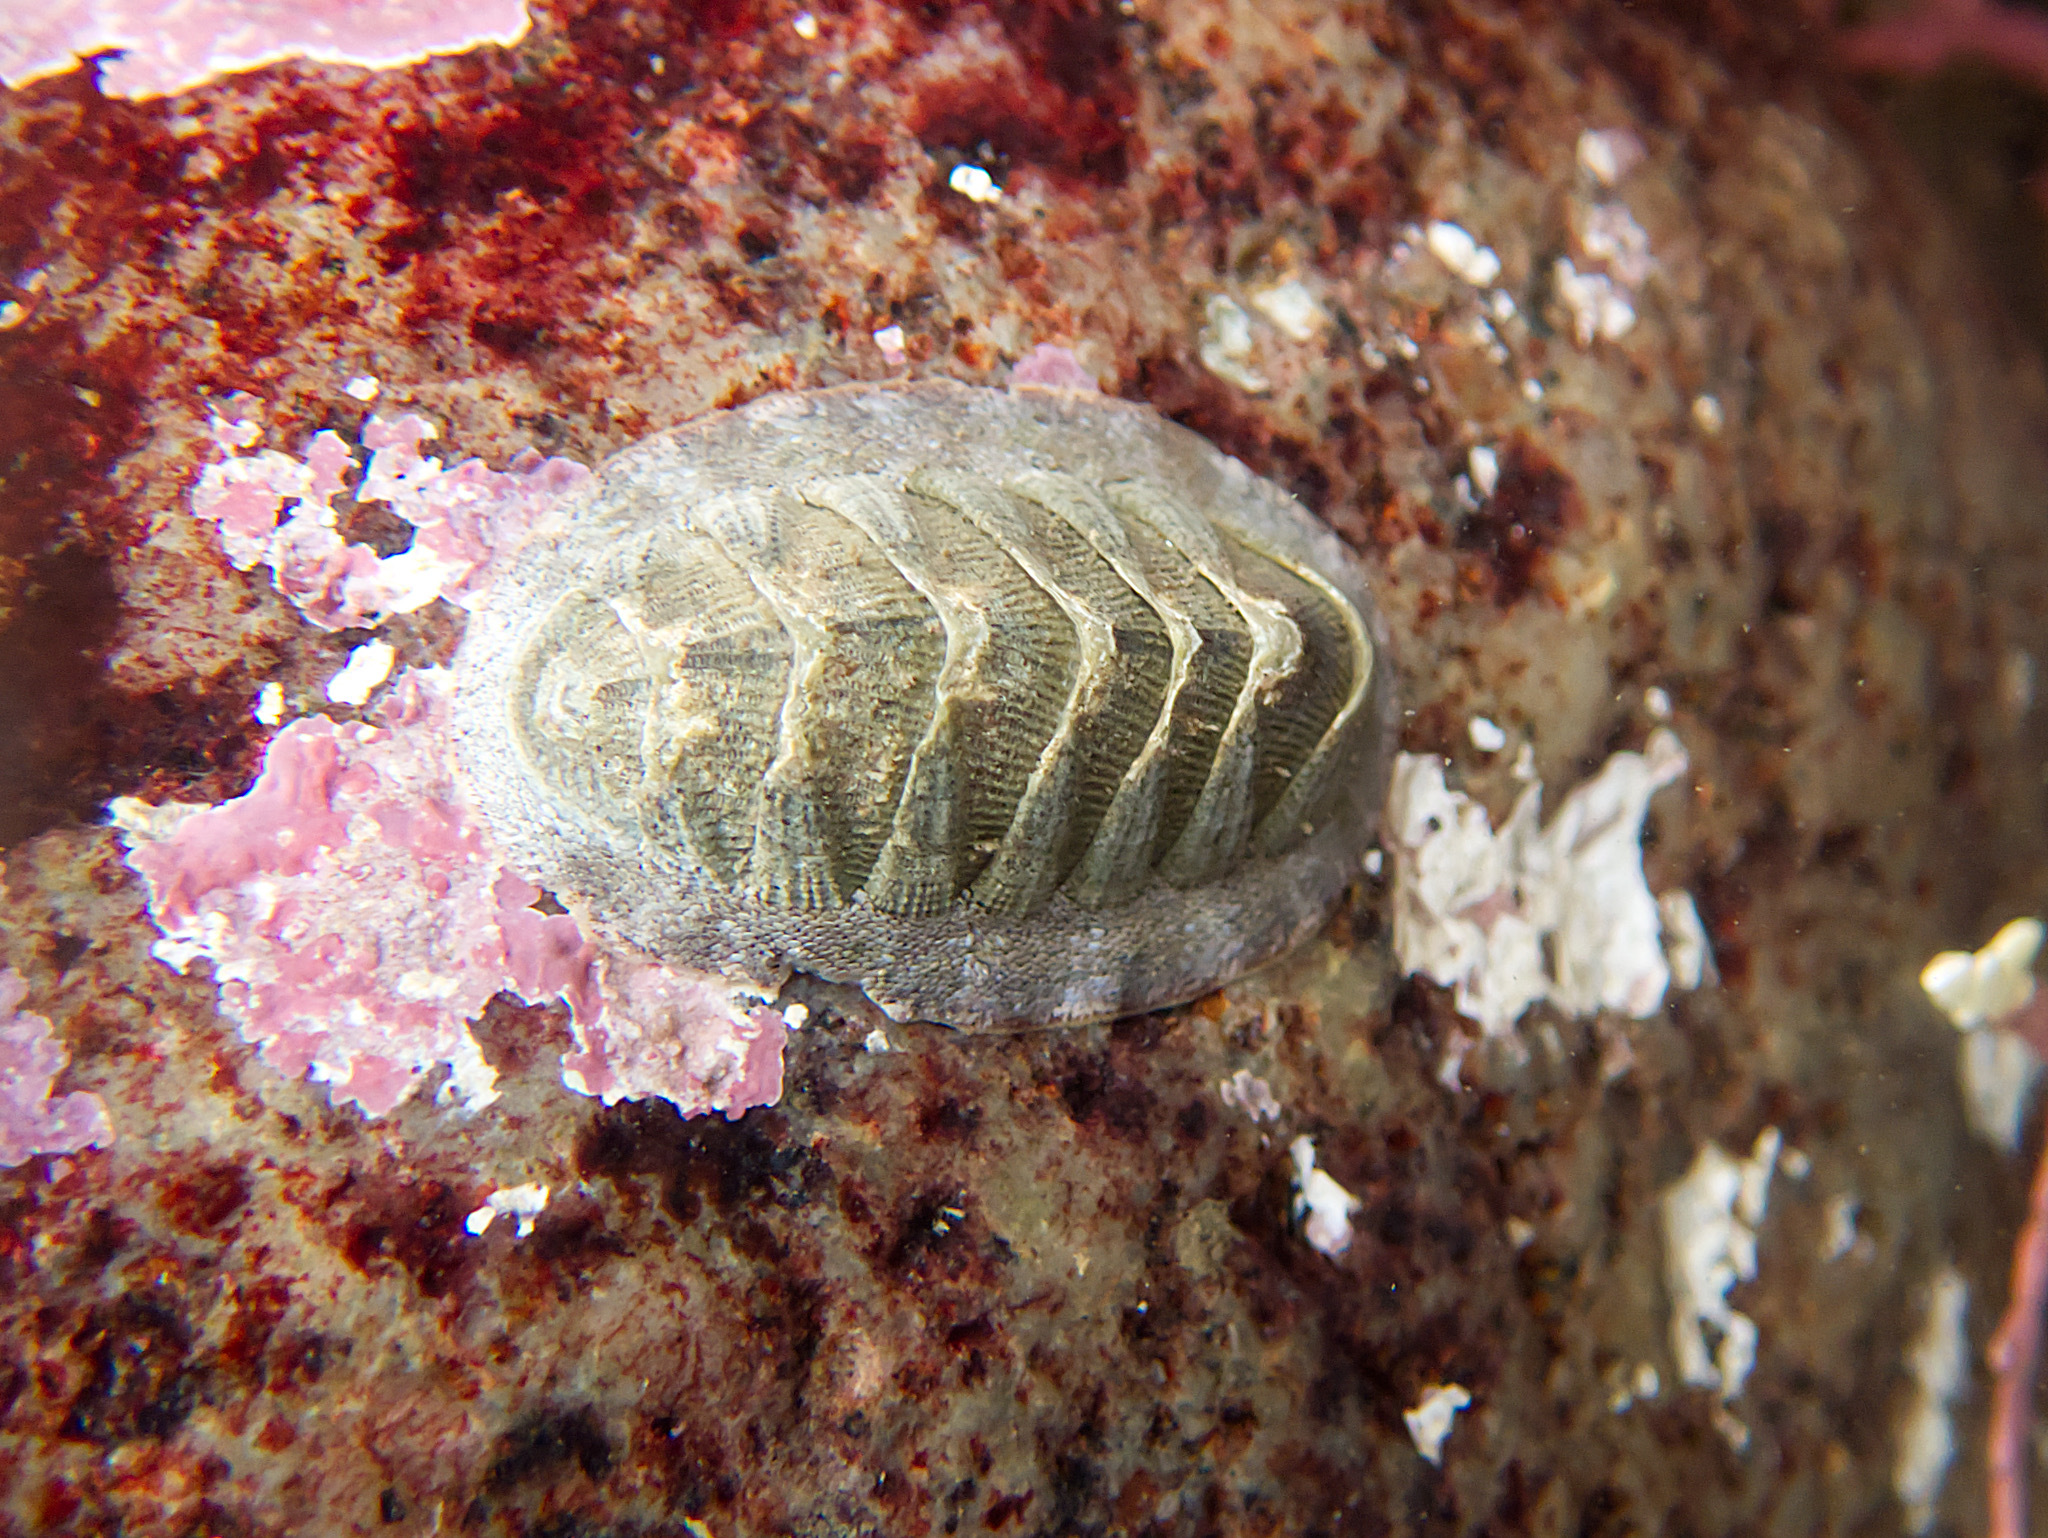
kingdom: Animalia
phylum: Mollusca
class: Polyplacophora
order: Chitonida
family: Ischnochitonidae
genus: Lepidozona
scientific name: Lepidozona cooperi
